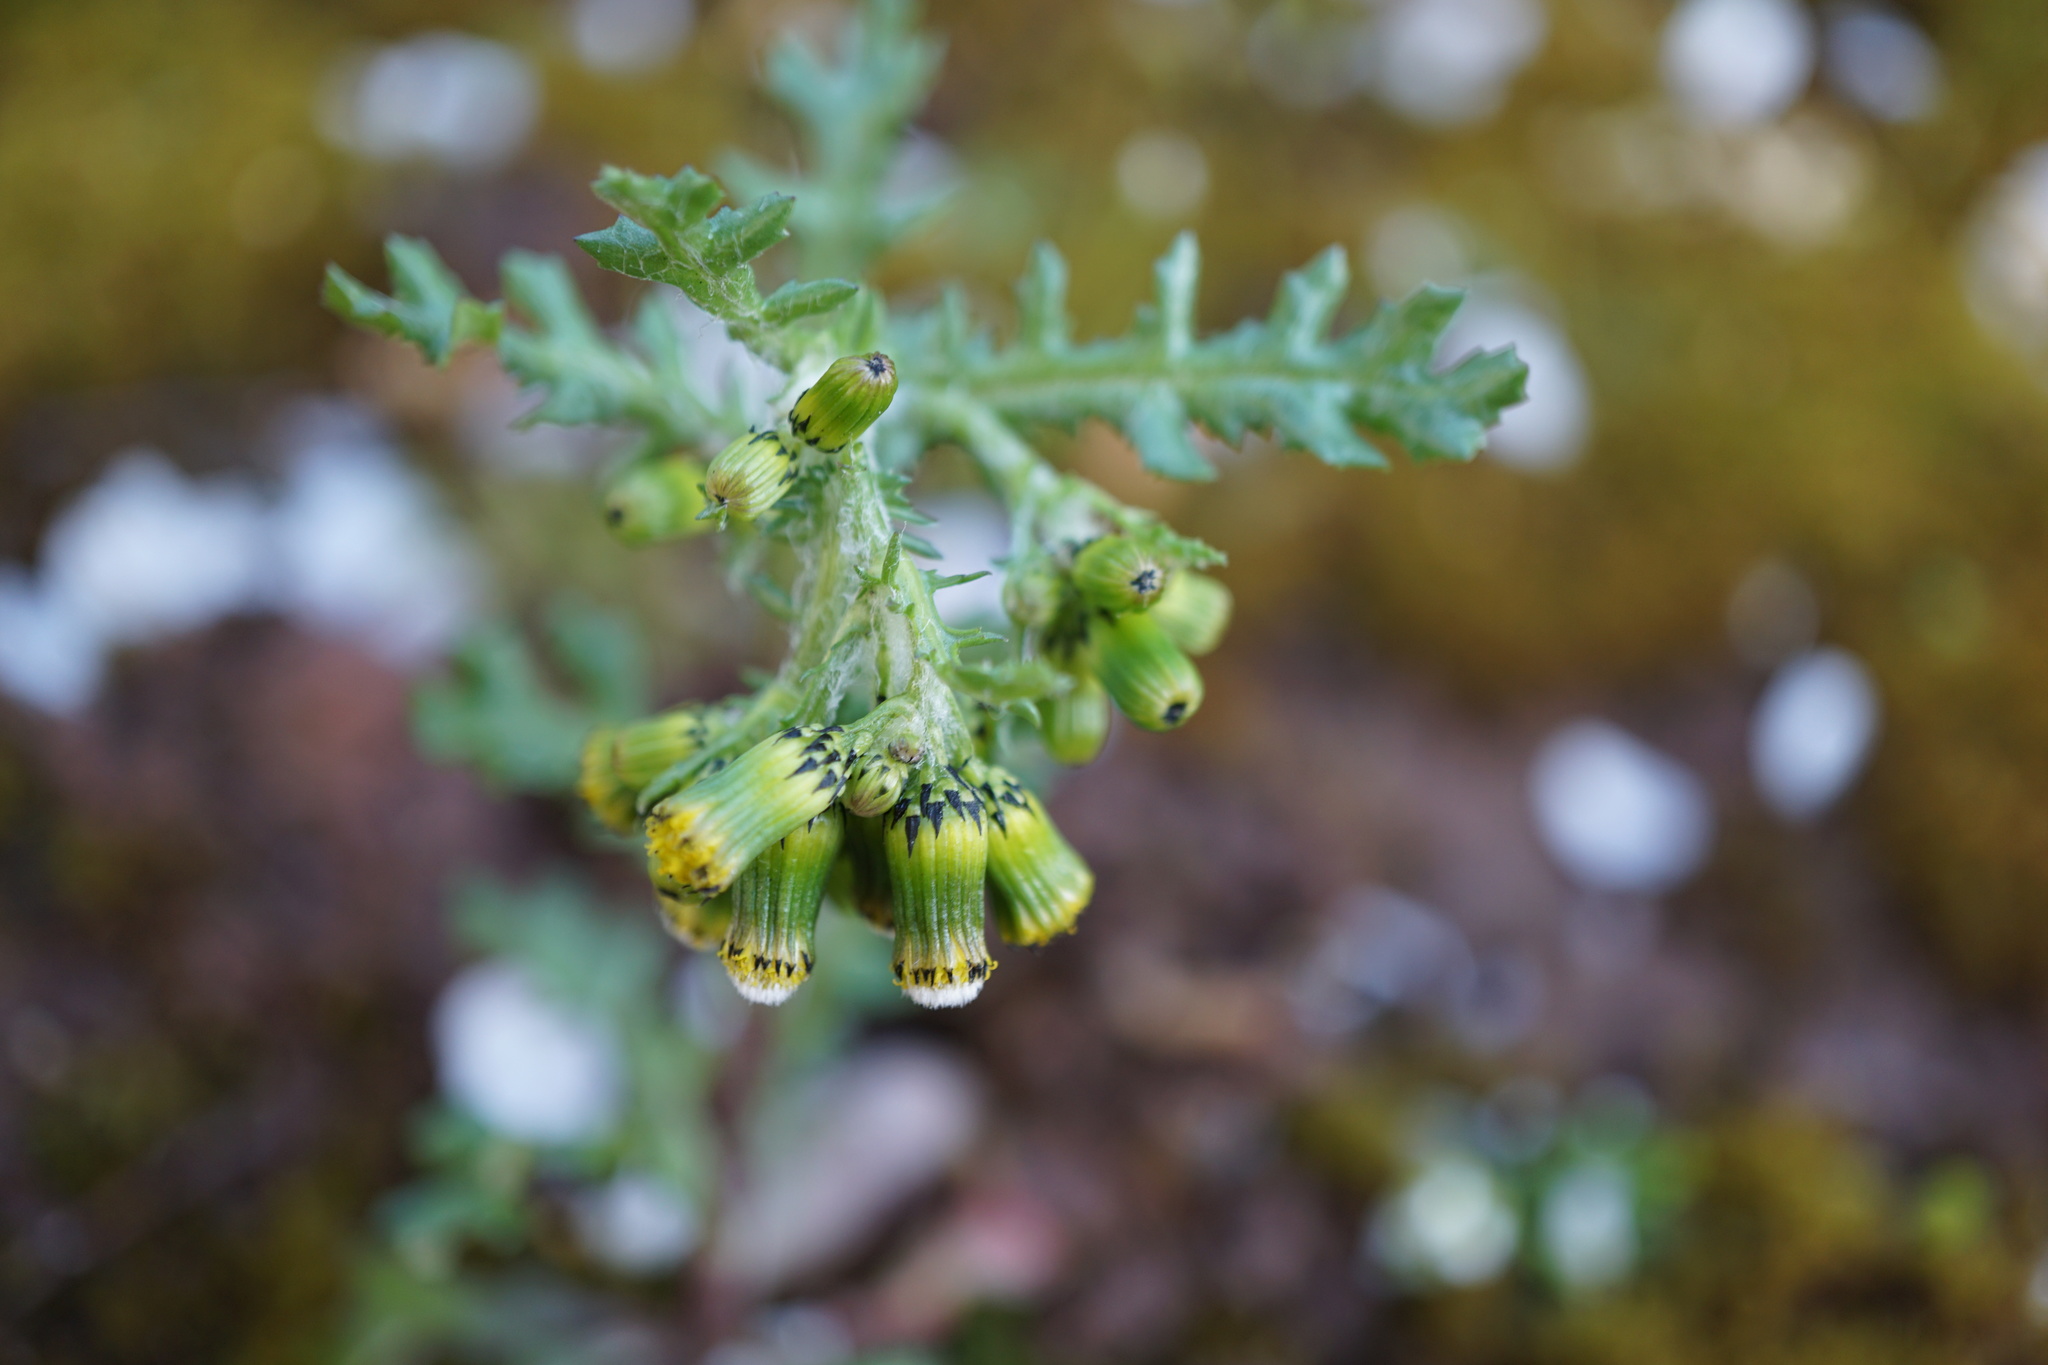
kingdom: Plantae
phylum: Tracheophyta
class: Magnoliopsida
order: Asterales
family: Asteraceae
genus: Senecio
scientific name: Senecio vulgaris
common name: Old-man-in-the-spring
